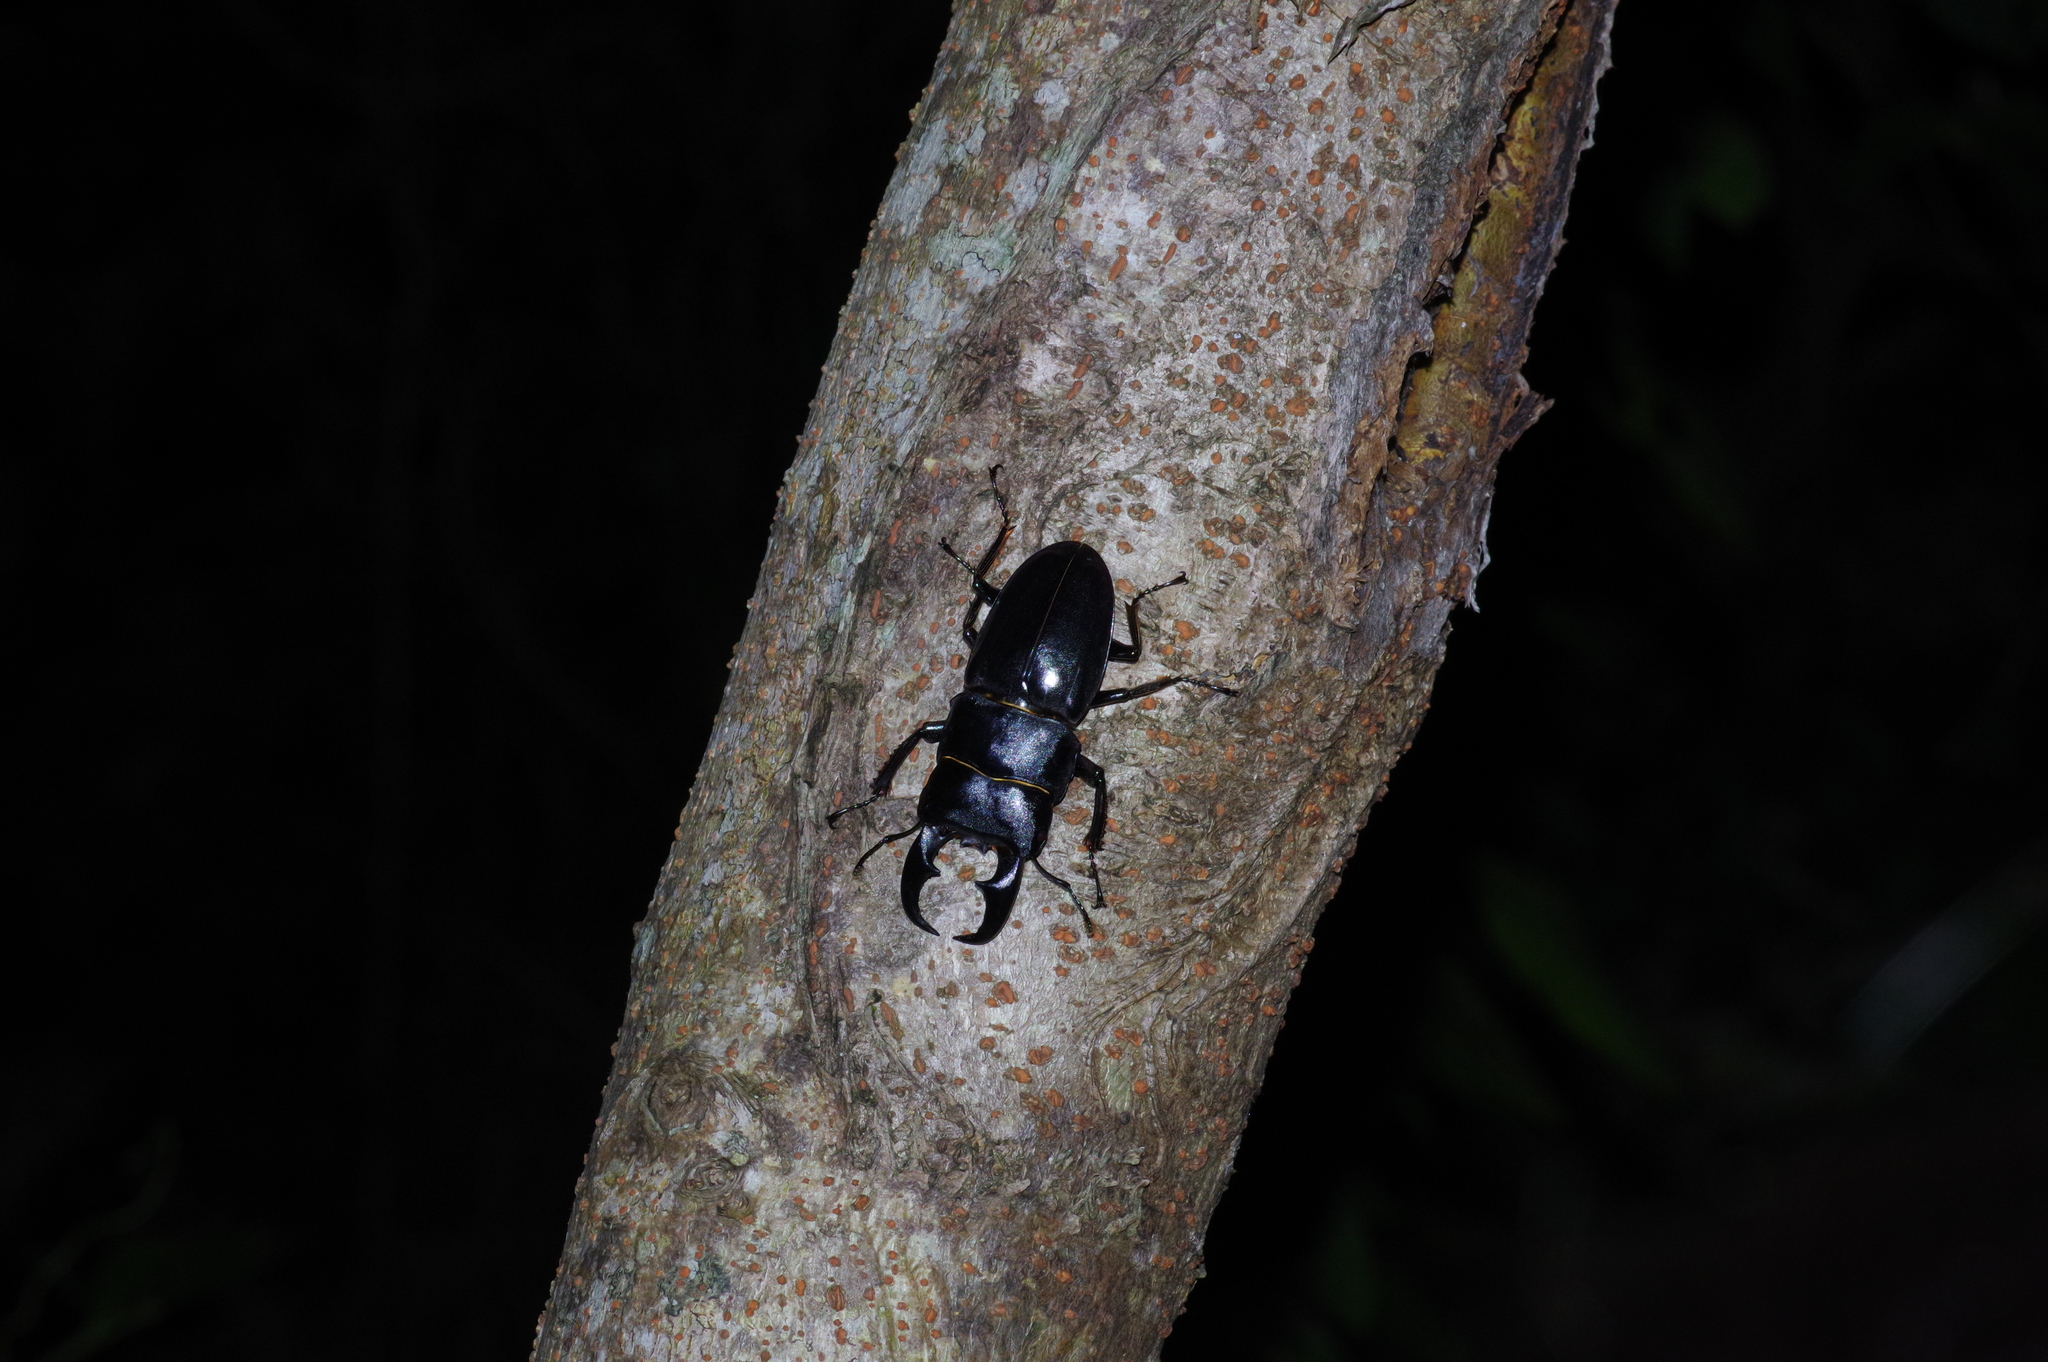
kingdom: Animalia
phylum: Arthropoda
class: Insecta
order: Coleoptera
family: Lucanidae
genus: Serrognathus
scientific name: Serrognathus titanus
